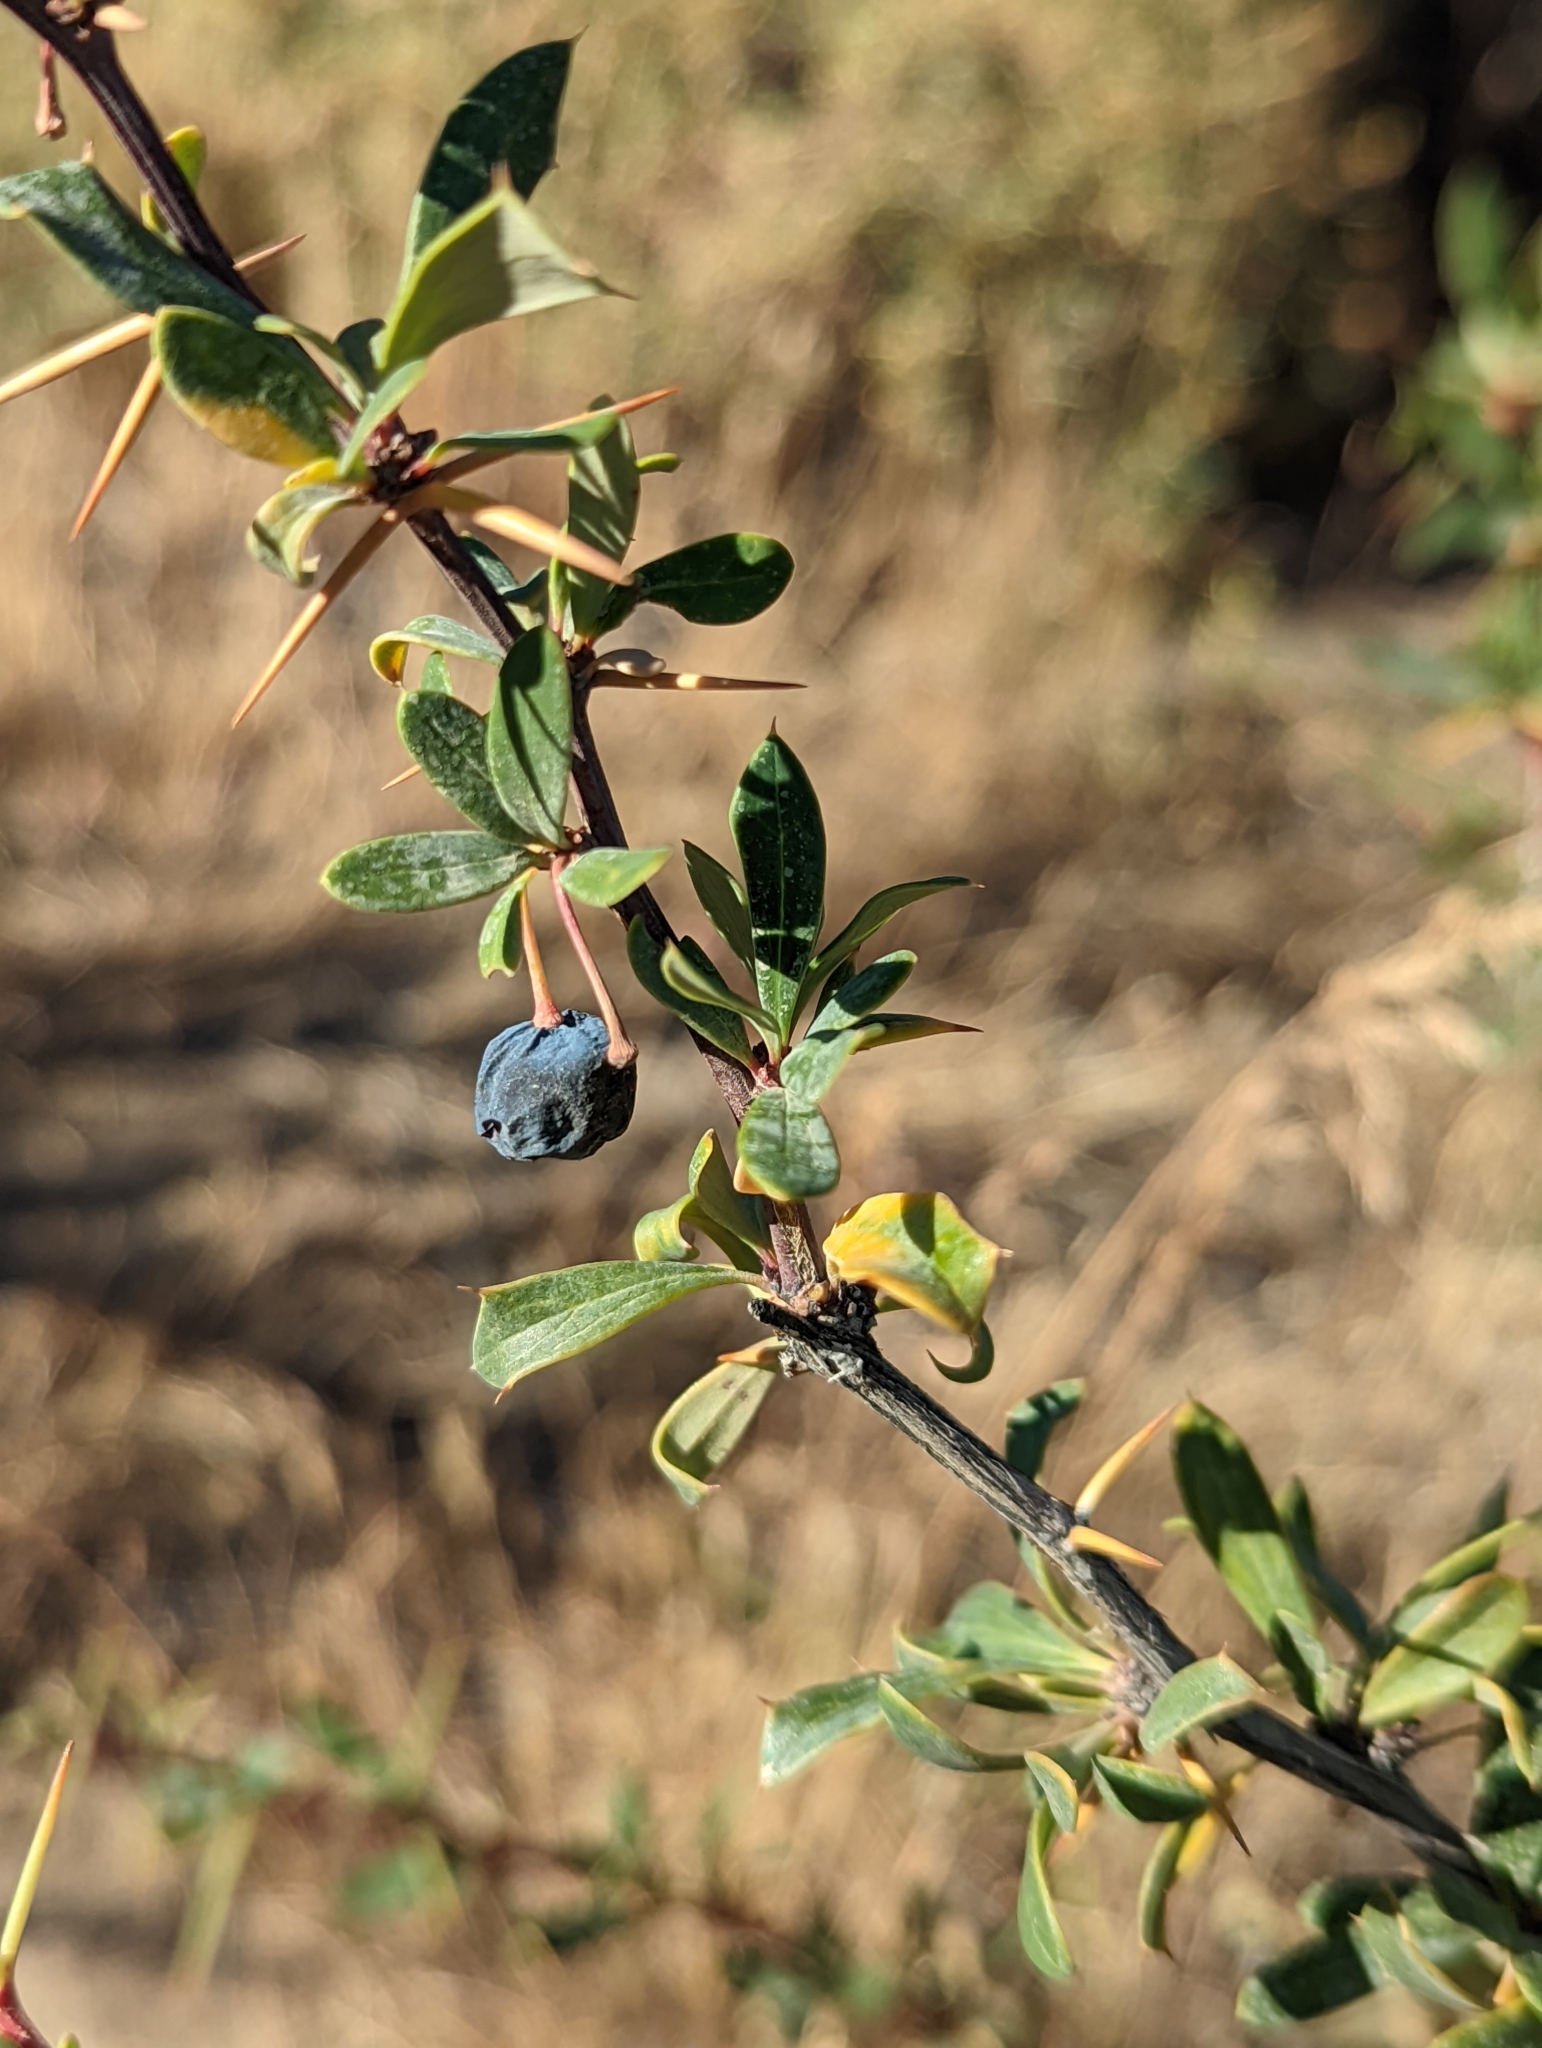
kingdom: Plantae
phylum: Tracheophyta
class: Magnoliopsida
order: Ranunculales
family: Berberidaceae
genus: Berberis
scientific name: Berberis microphylla
